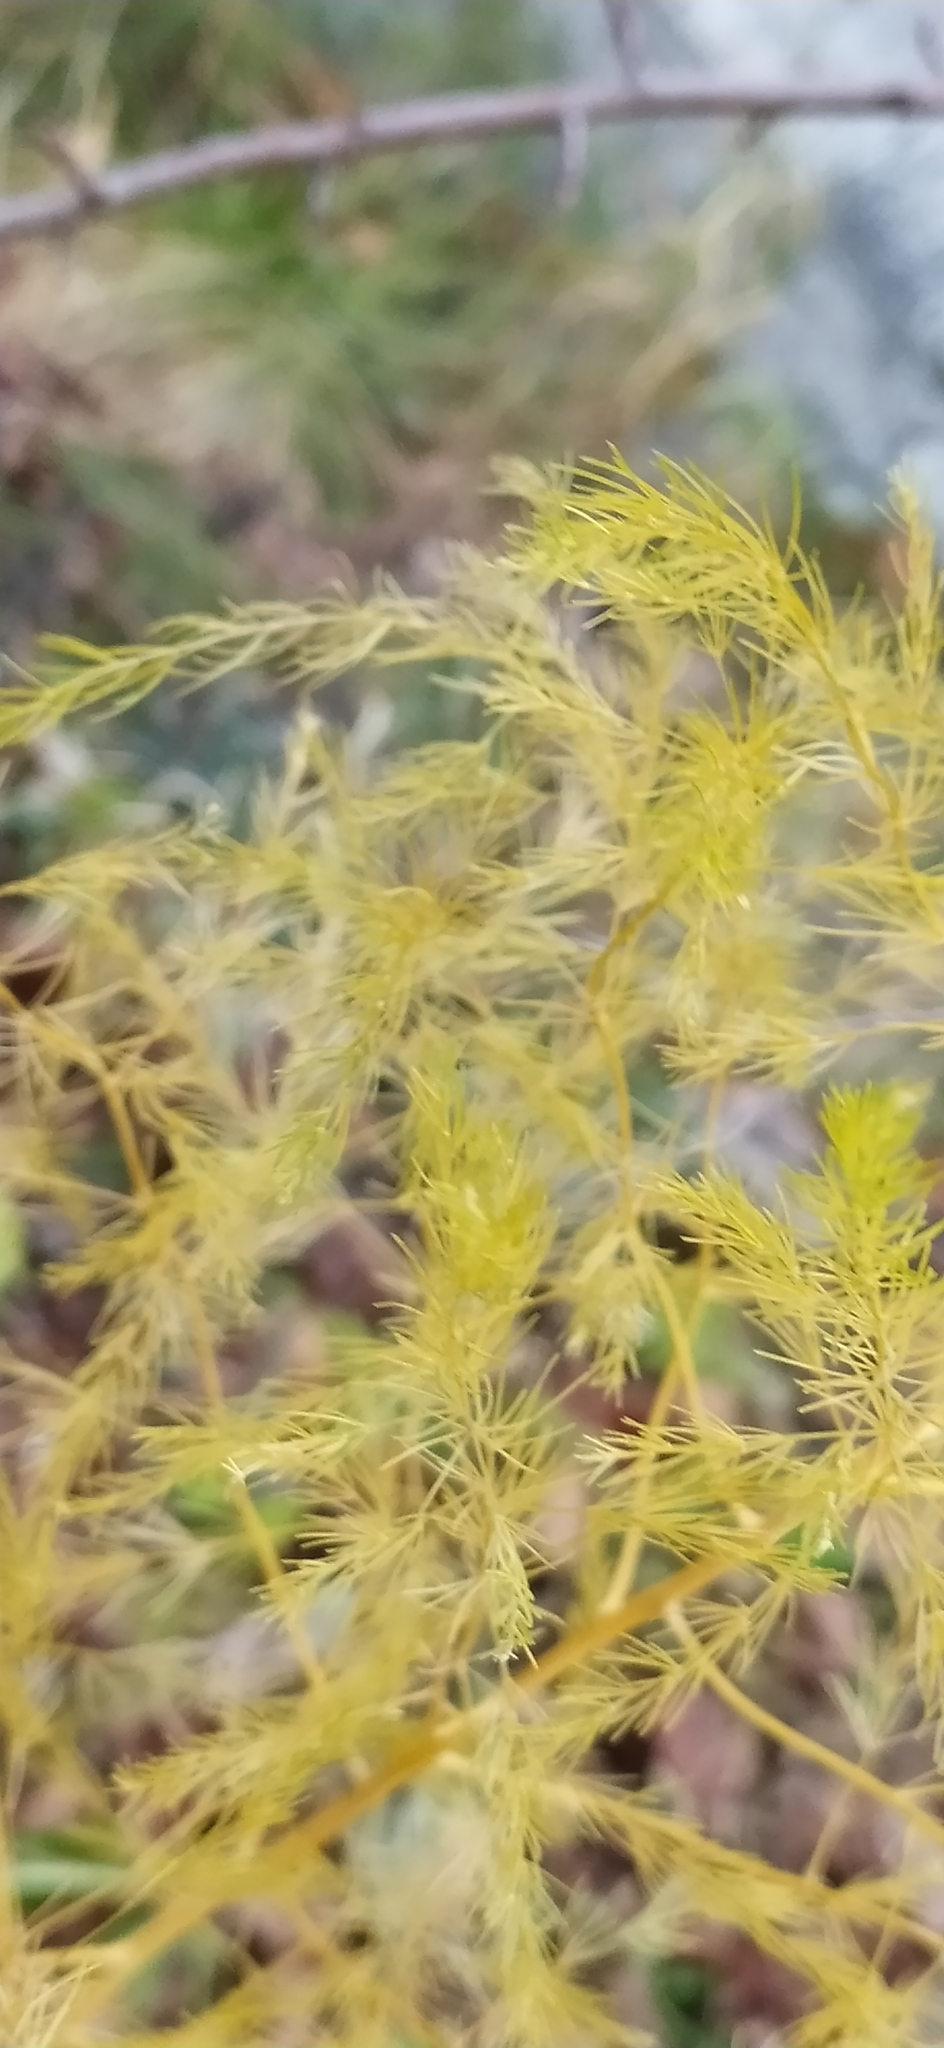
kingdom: Plantae
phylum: Tracheophyta
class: Liliopsida
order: Asparagales
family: Asparagaceae
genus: Asparagus
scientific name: Asparagus officinalis
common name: Garden asparagus
